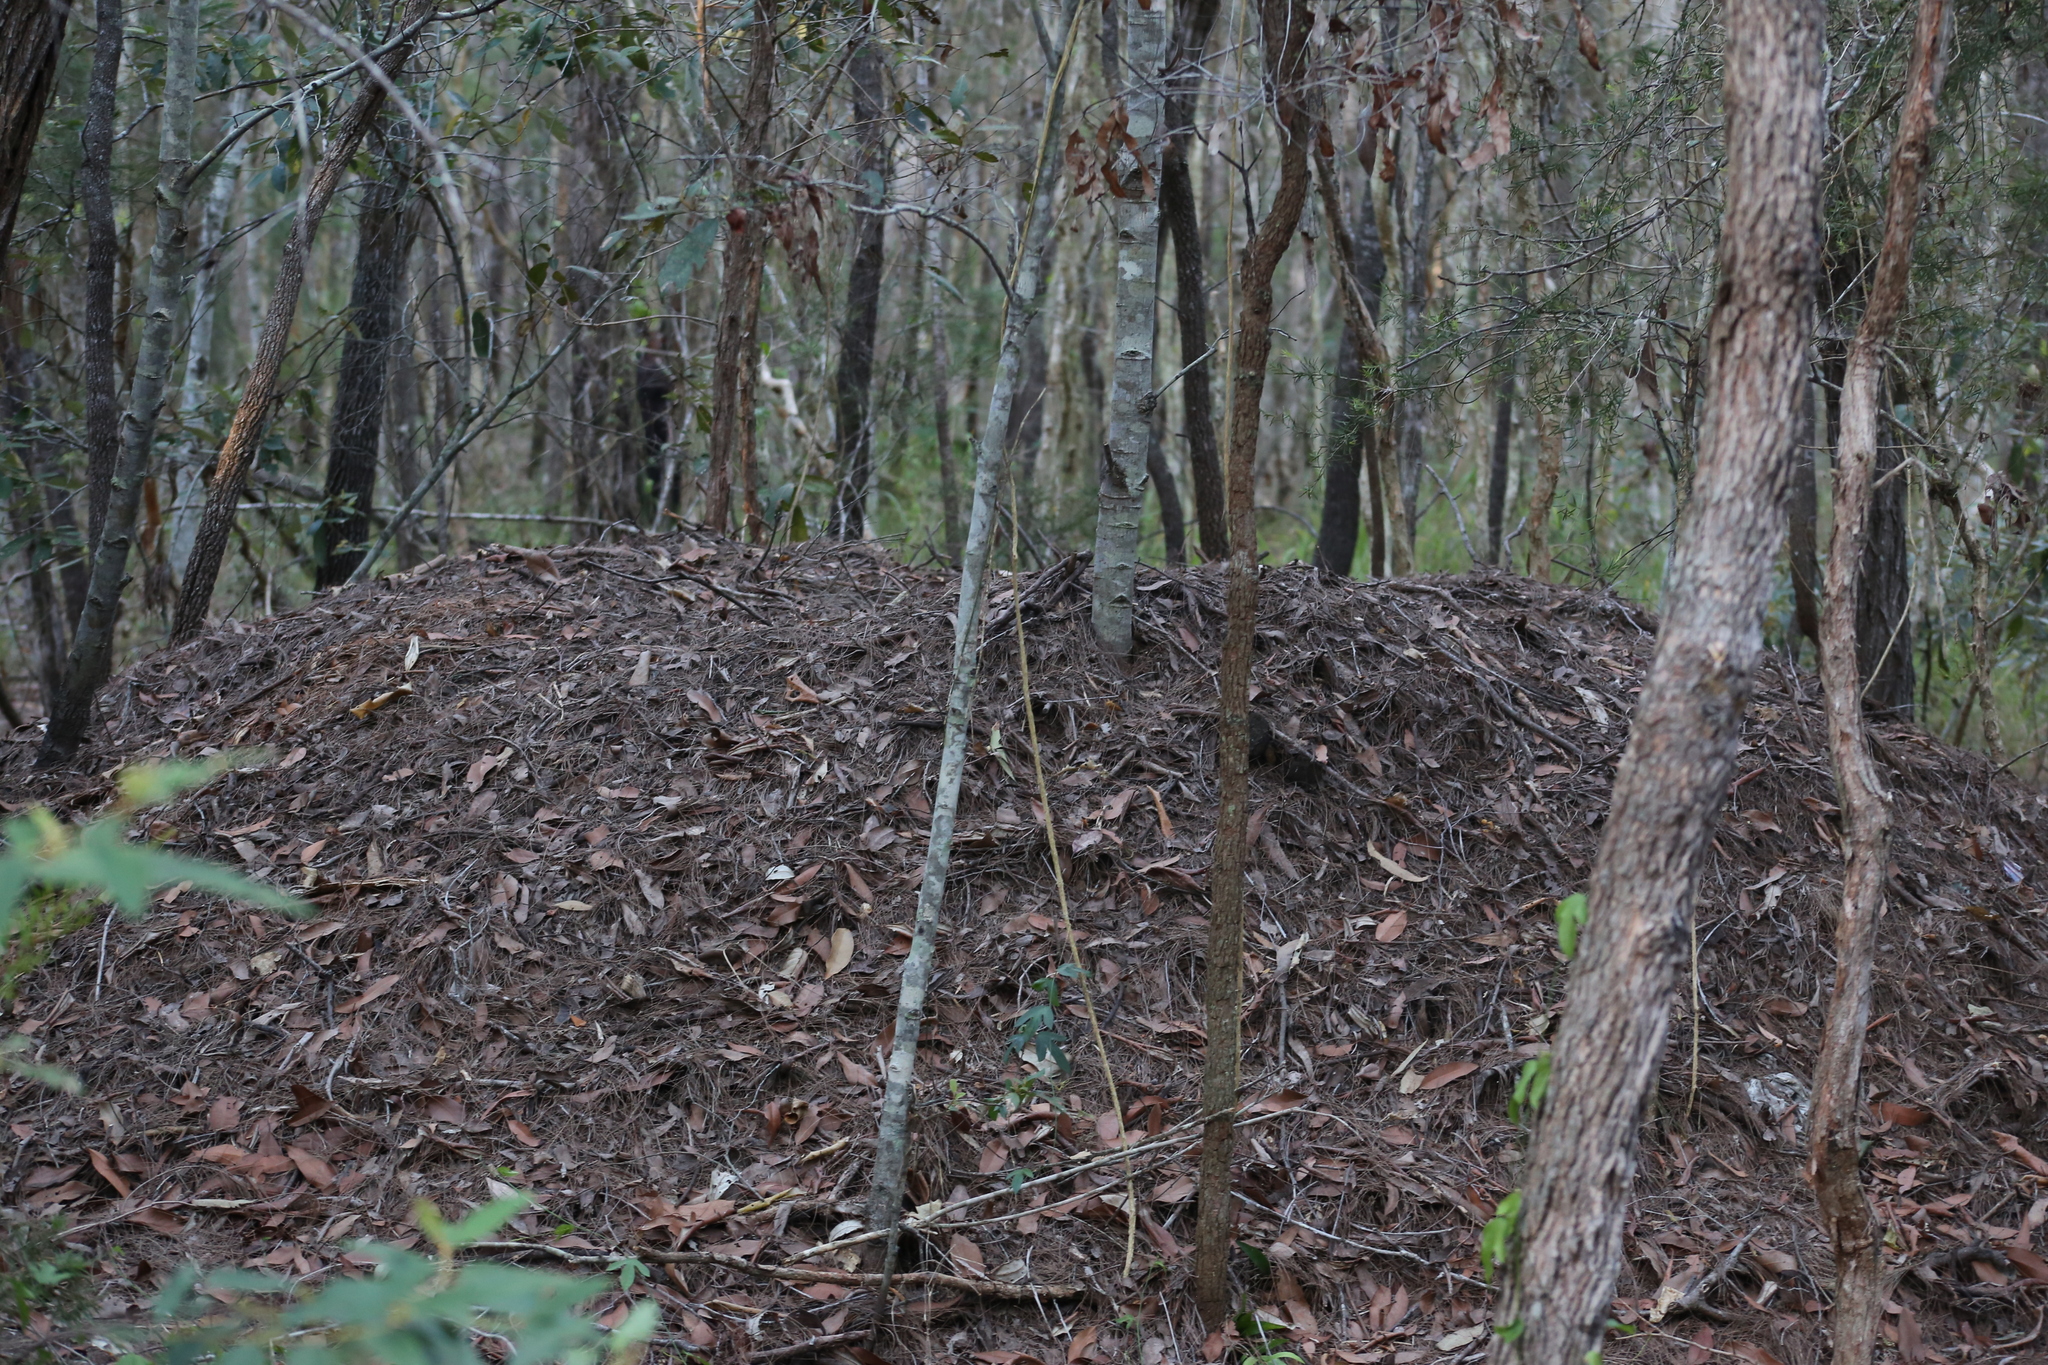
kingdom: Animalia
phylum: Chordata
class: Aves
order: Galliformes
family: Megapodiidae
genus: Alectura
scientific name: Alectura lathami
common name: Australian brushturkey
